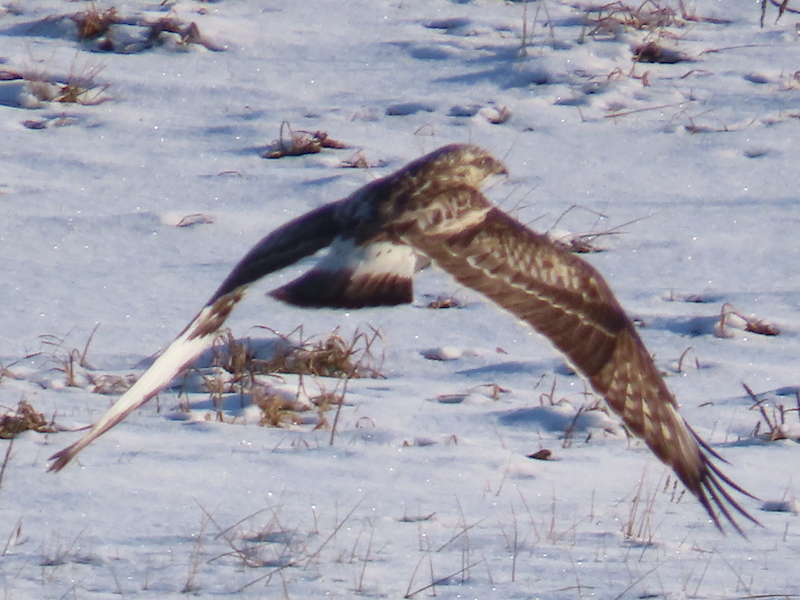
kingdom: Animalia
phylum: Chordata
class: Aves
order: Accipitriformes
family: Accipitridae
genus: Buteo
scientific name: Buteo lagopus
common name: Rough-legged buzzard
